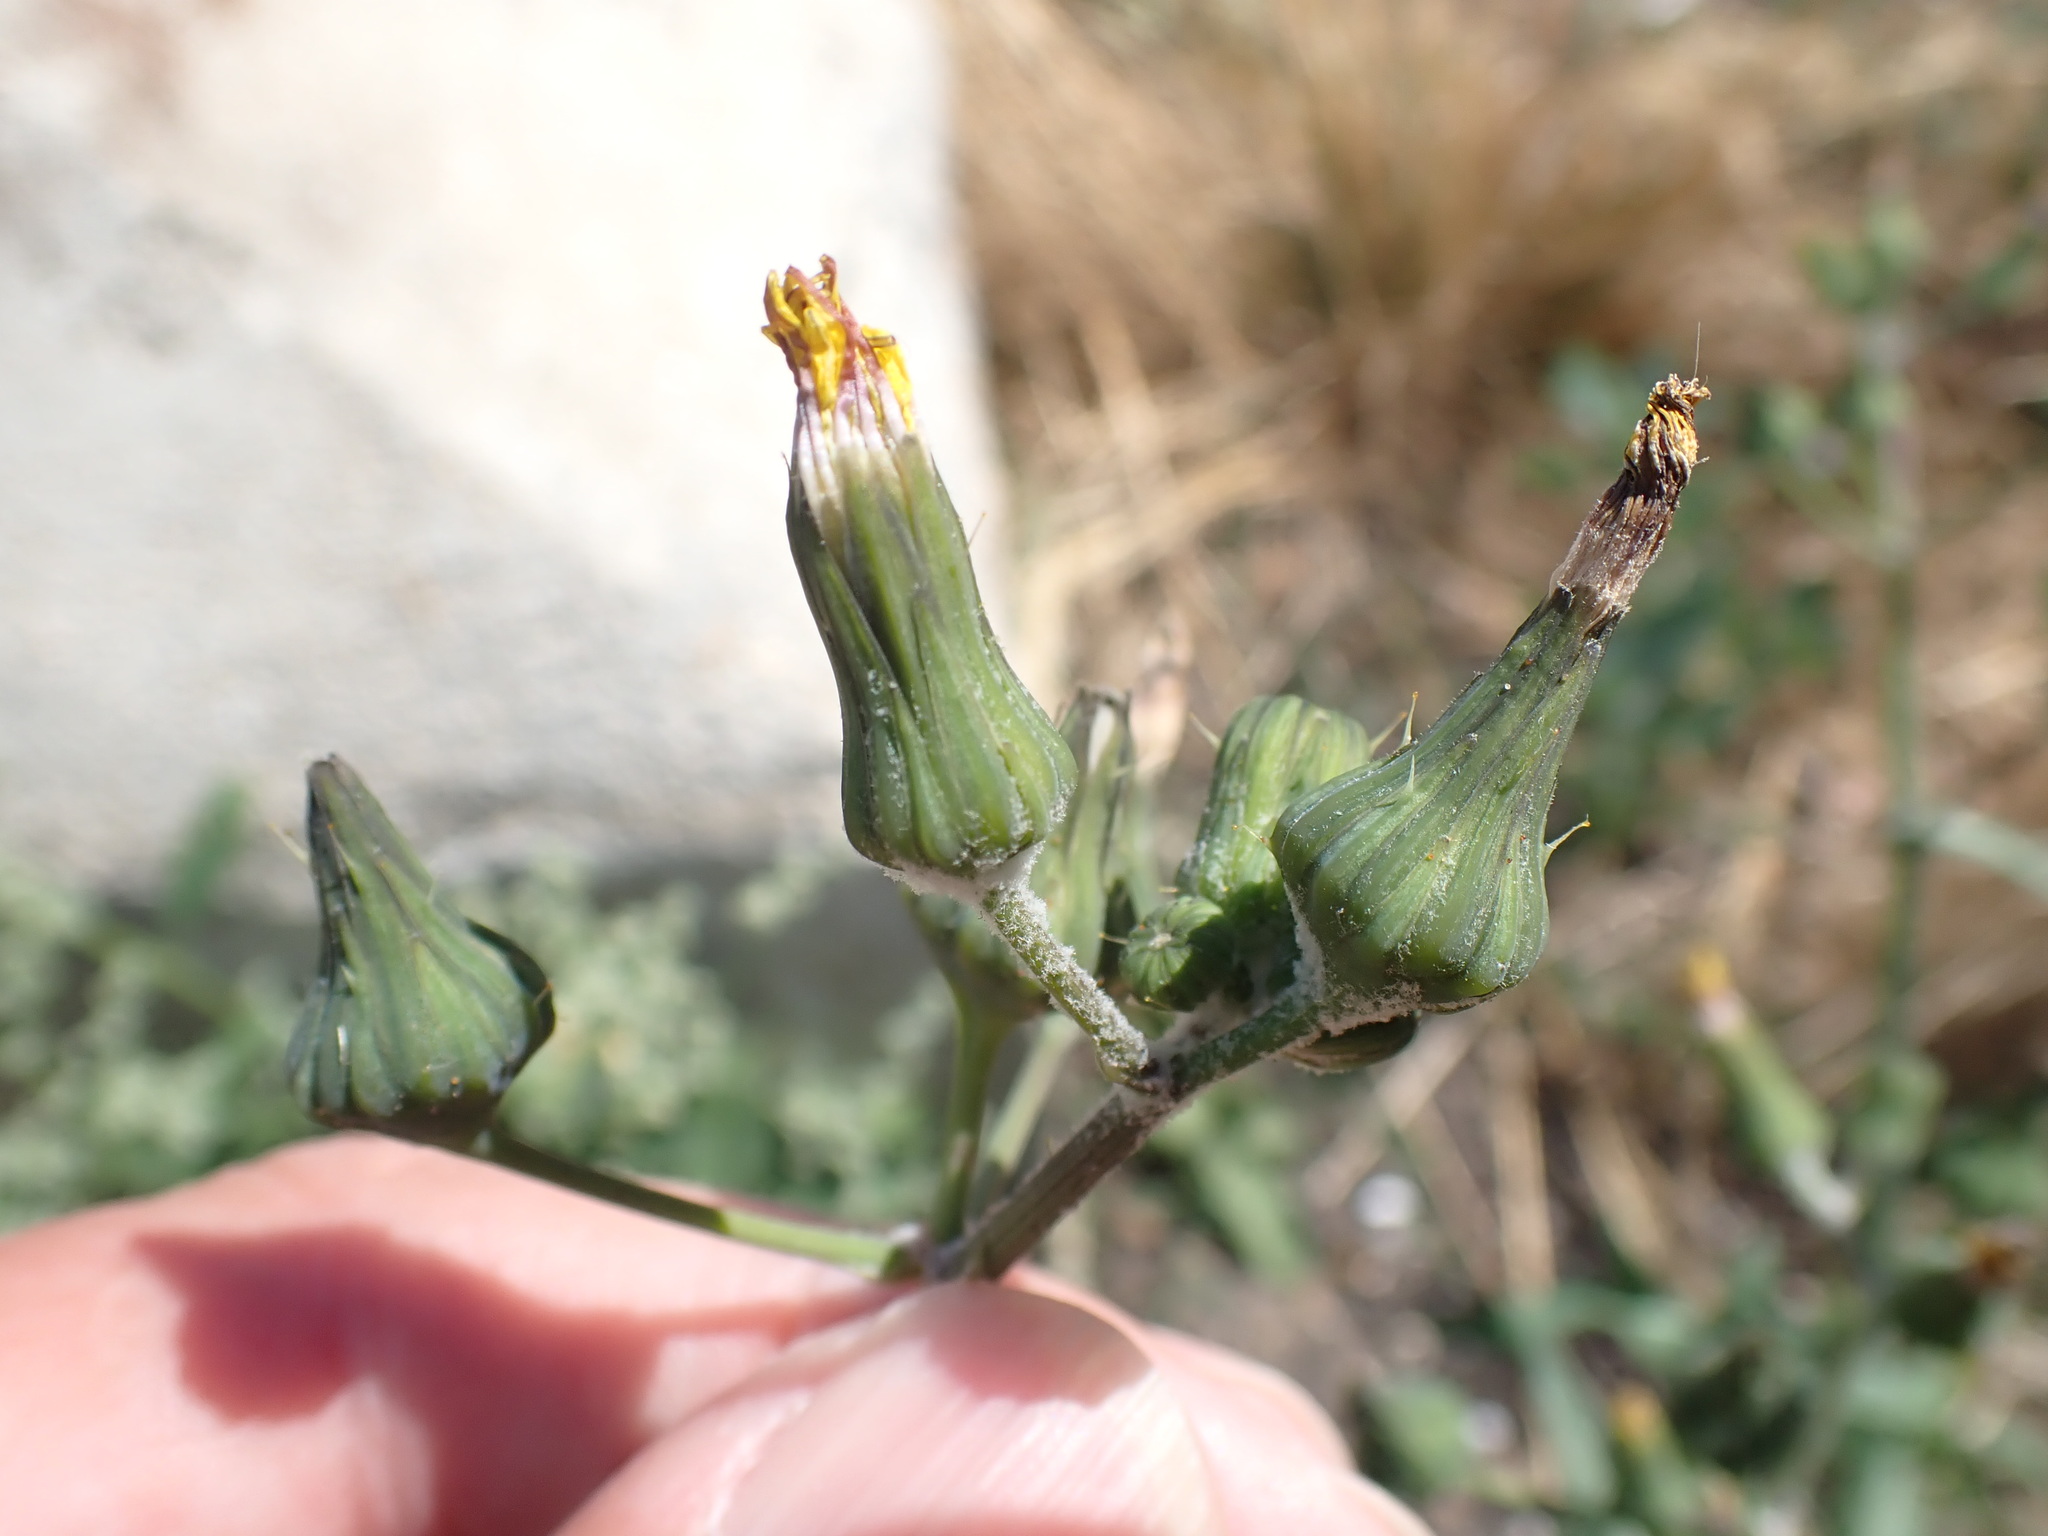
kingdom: Plantae
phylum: Tracheophyta
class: Magnoliopsida
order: Asterales
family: Asteraceae
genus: Sonchus
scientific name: Sonchus oleraceus
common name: Common sowthistle
